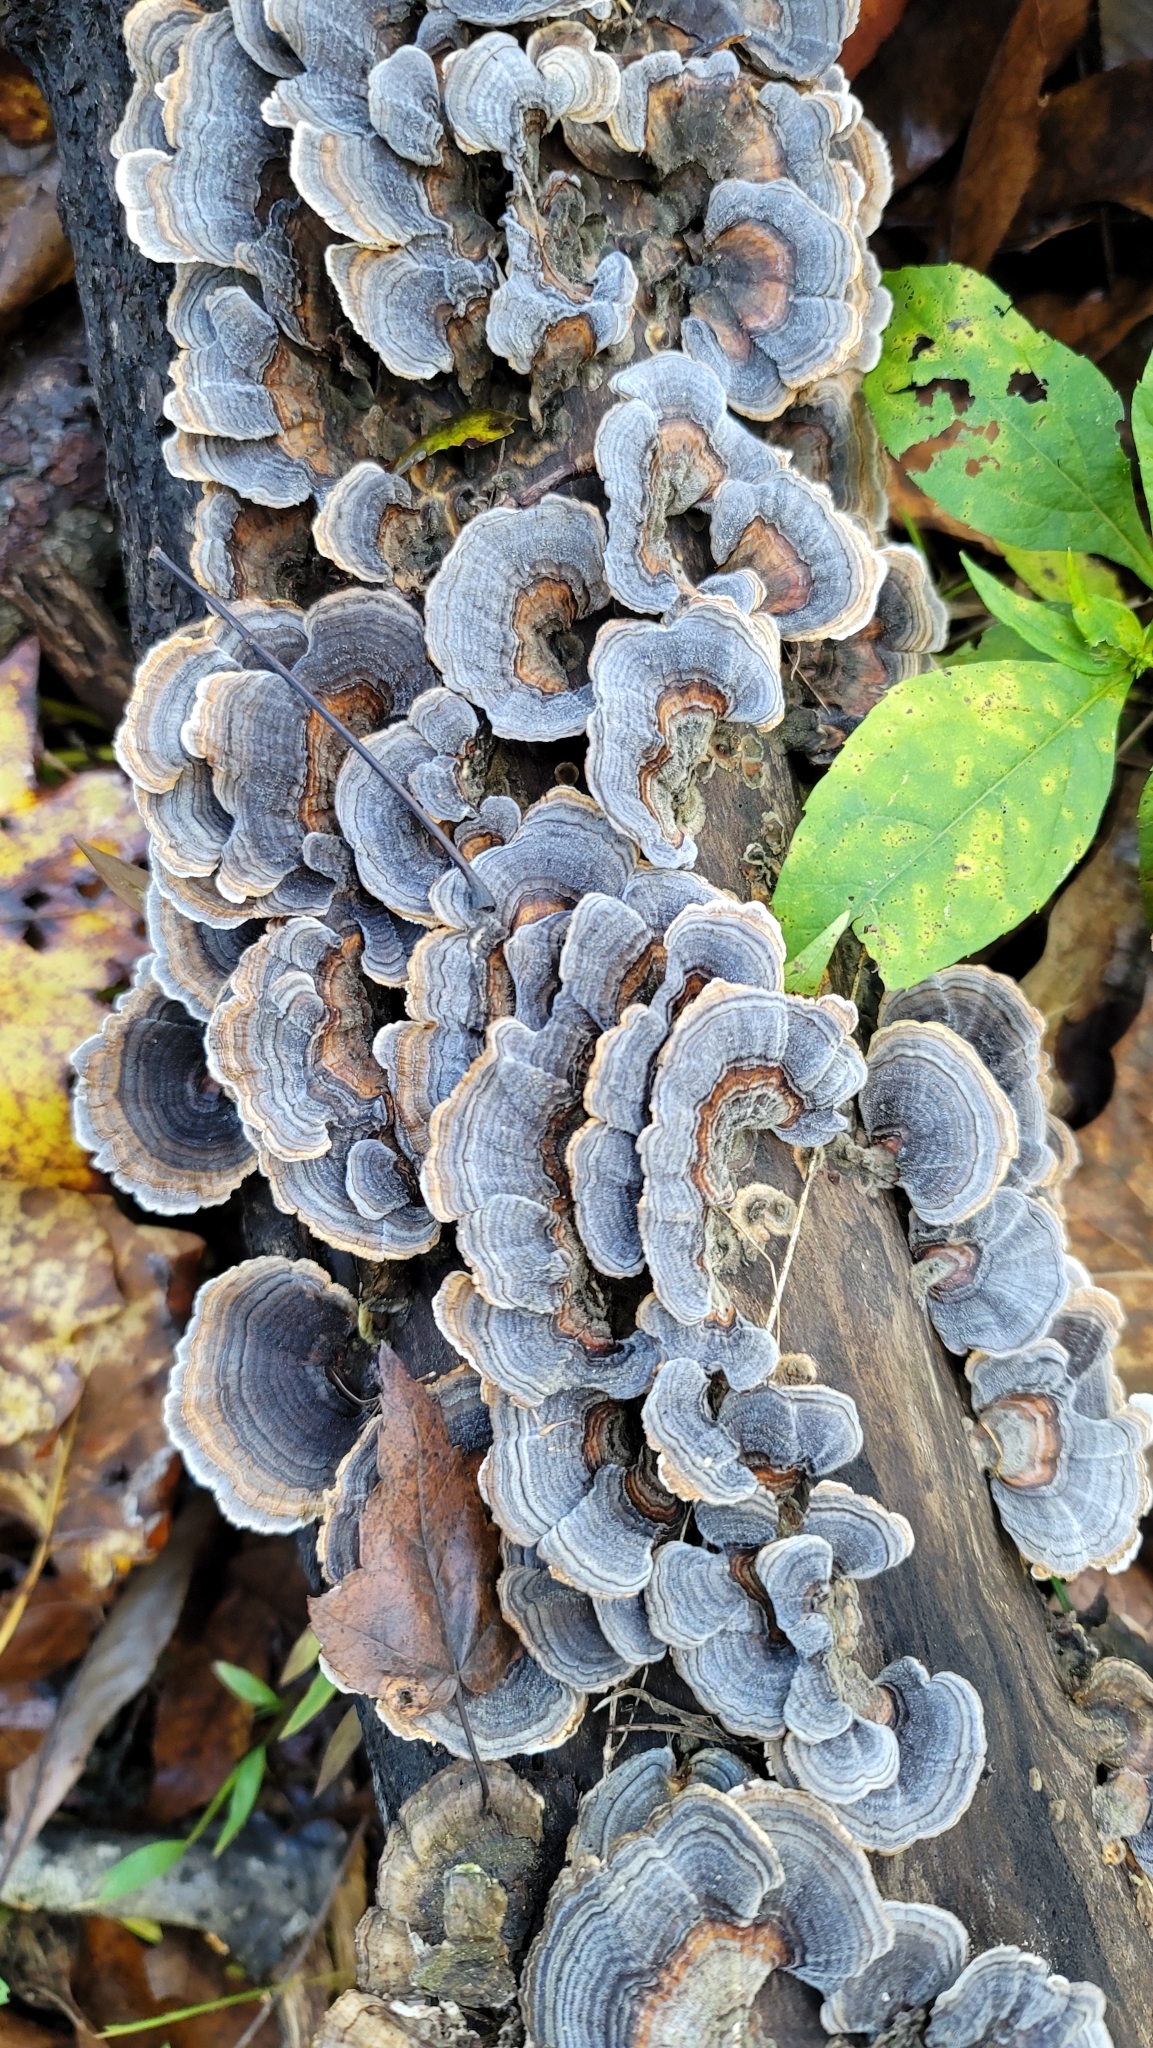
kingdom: Fungi
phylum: Basidiomycota
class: Agaricomycetes
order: Polyporales
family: Polyporaceae
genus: Trametes
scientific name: Trametes versicolor
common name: Turkeytail
